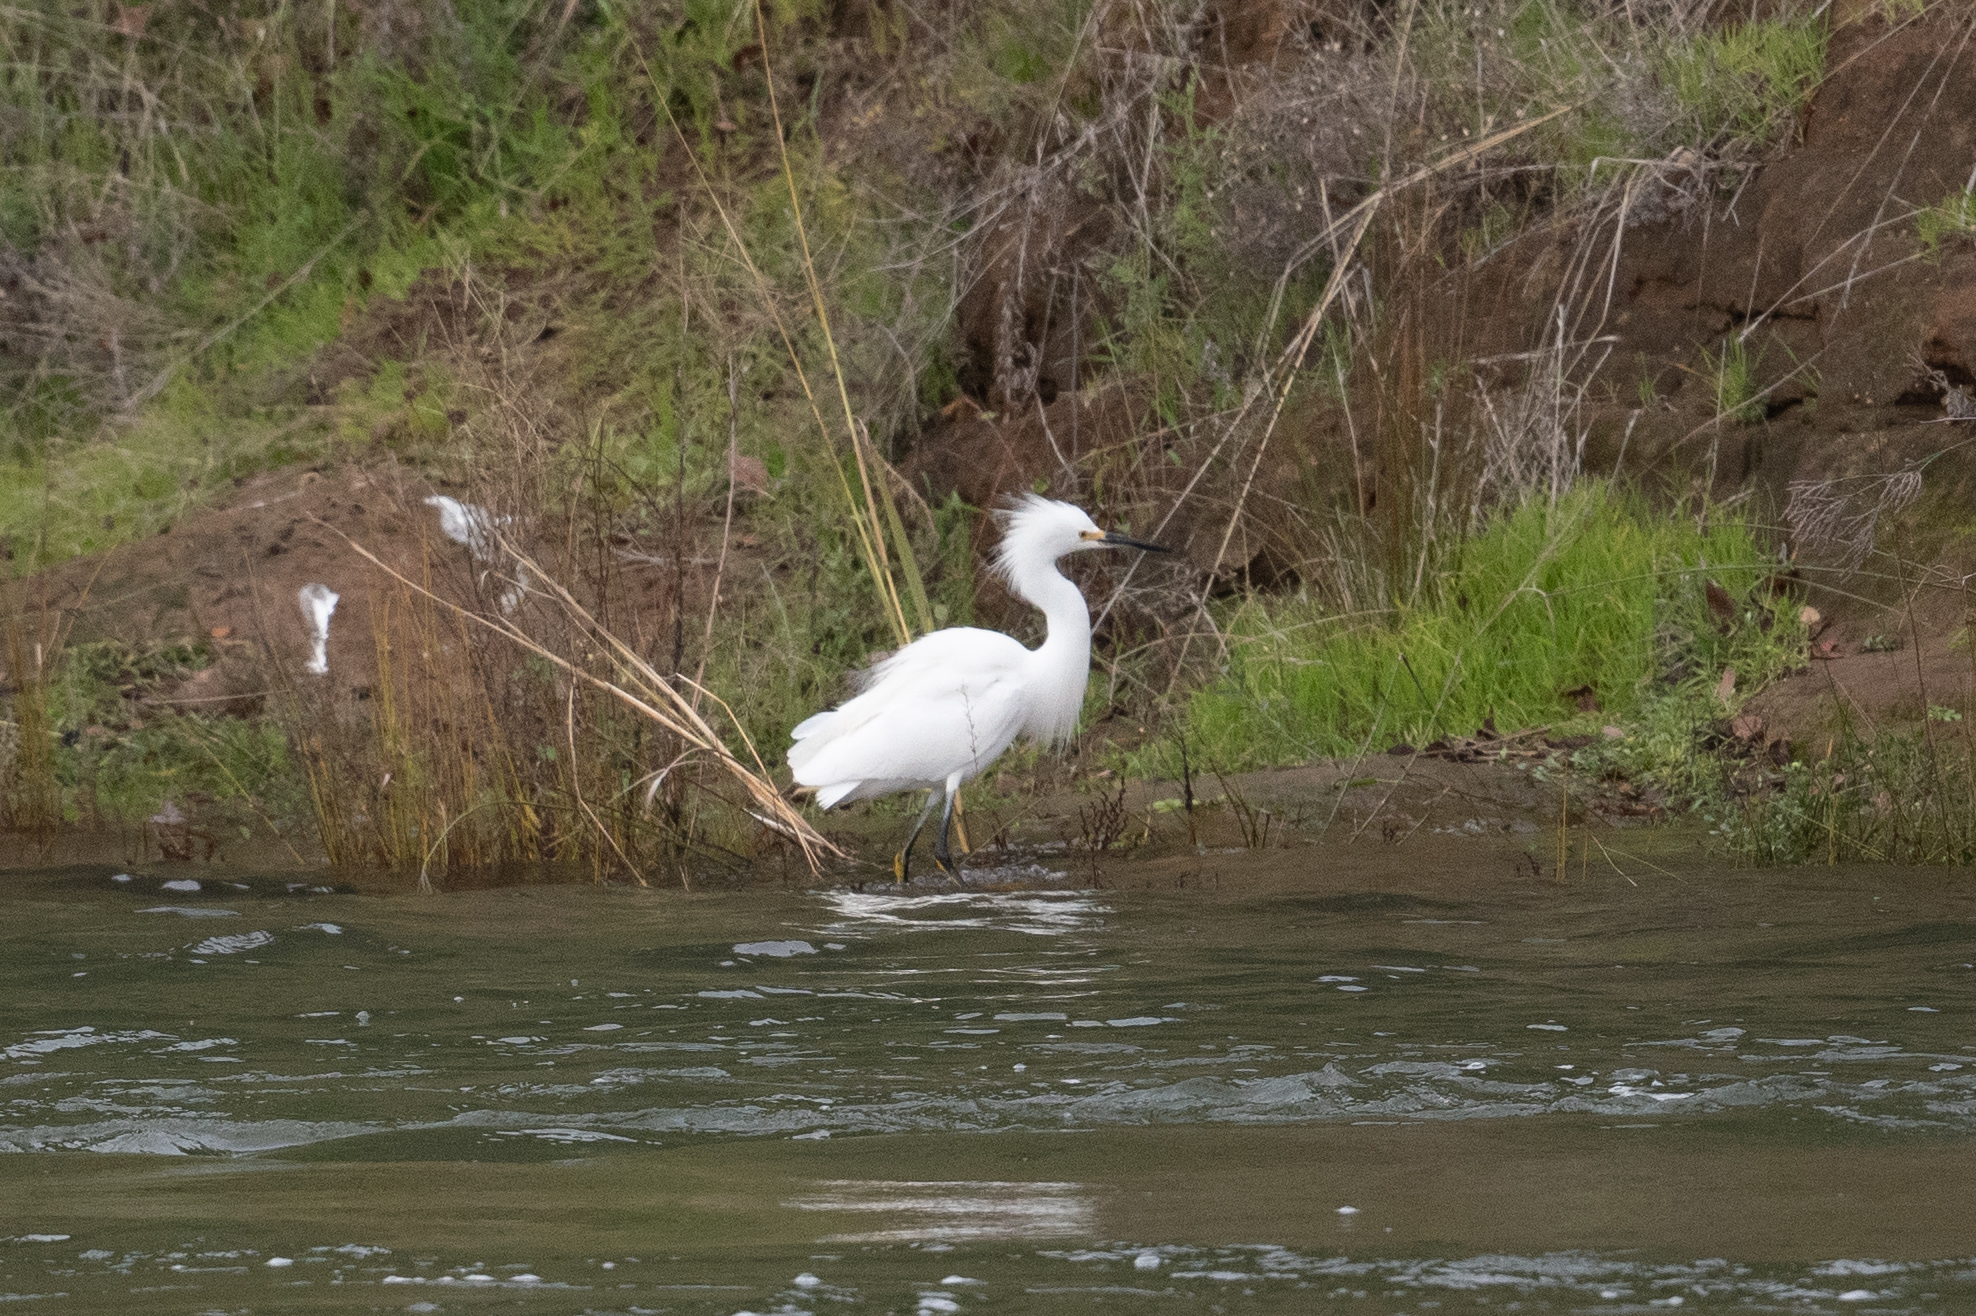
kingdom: Animalia
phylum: Chordata
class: Aves
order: Pelecaniformes
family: Ardeidae
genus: Egretta
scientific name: Egretta thula
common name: Snowy egret
